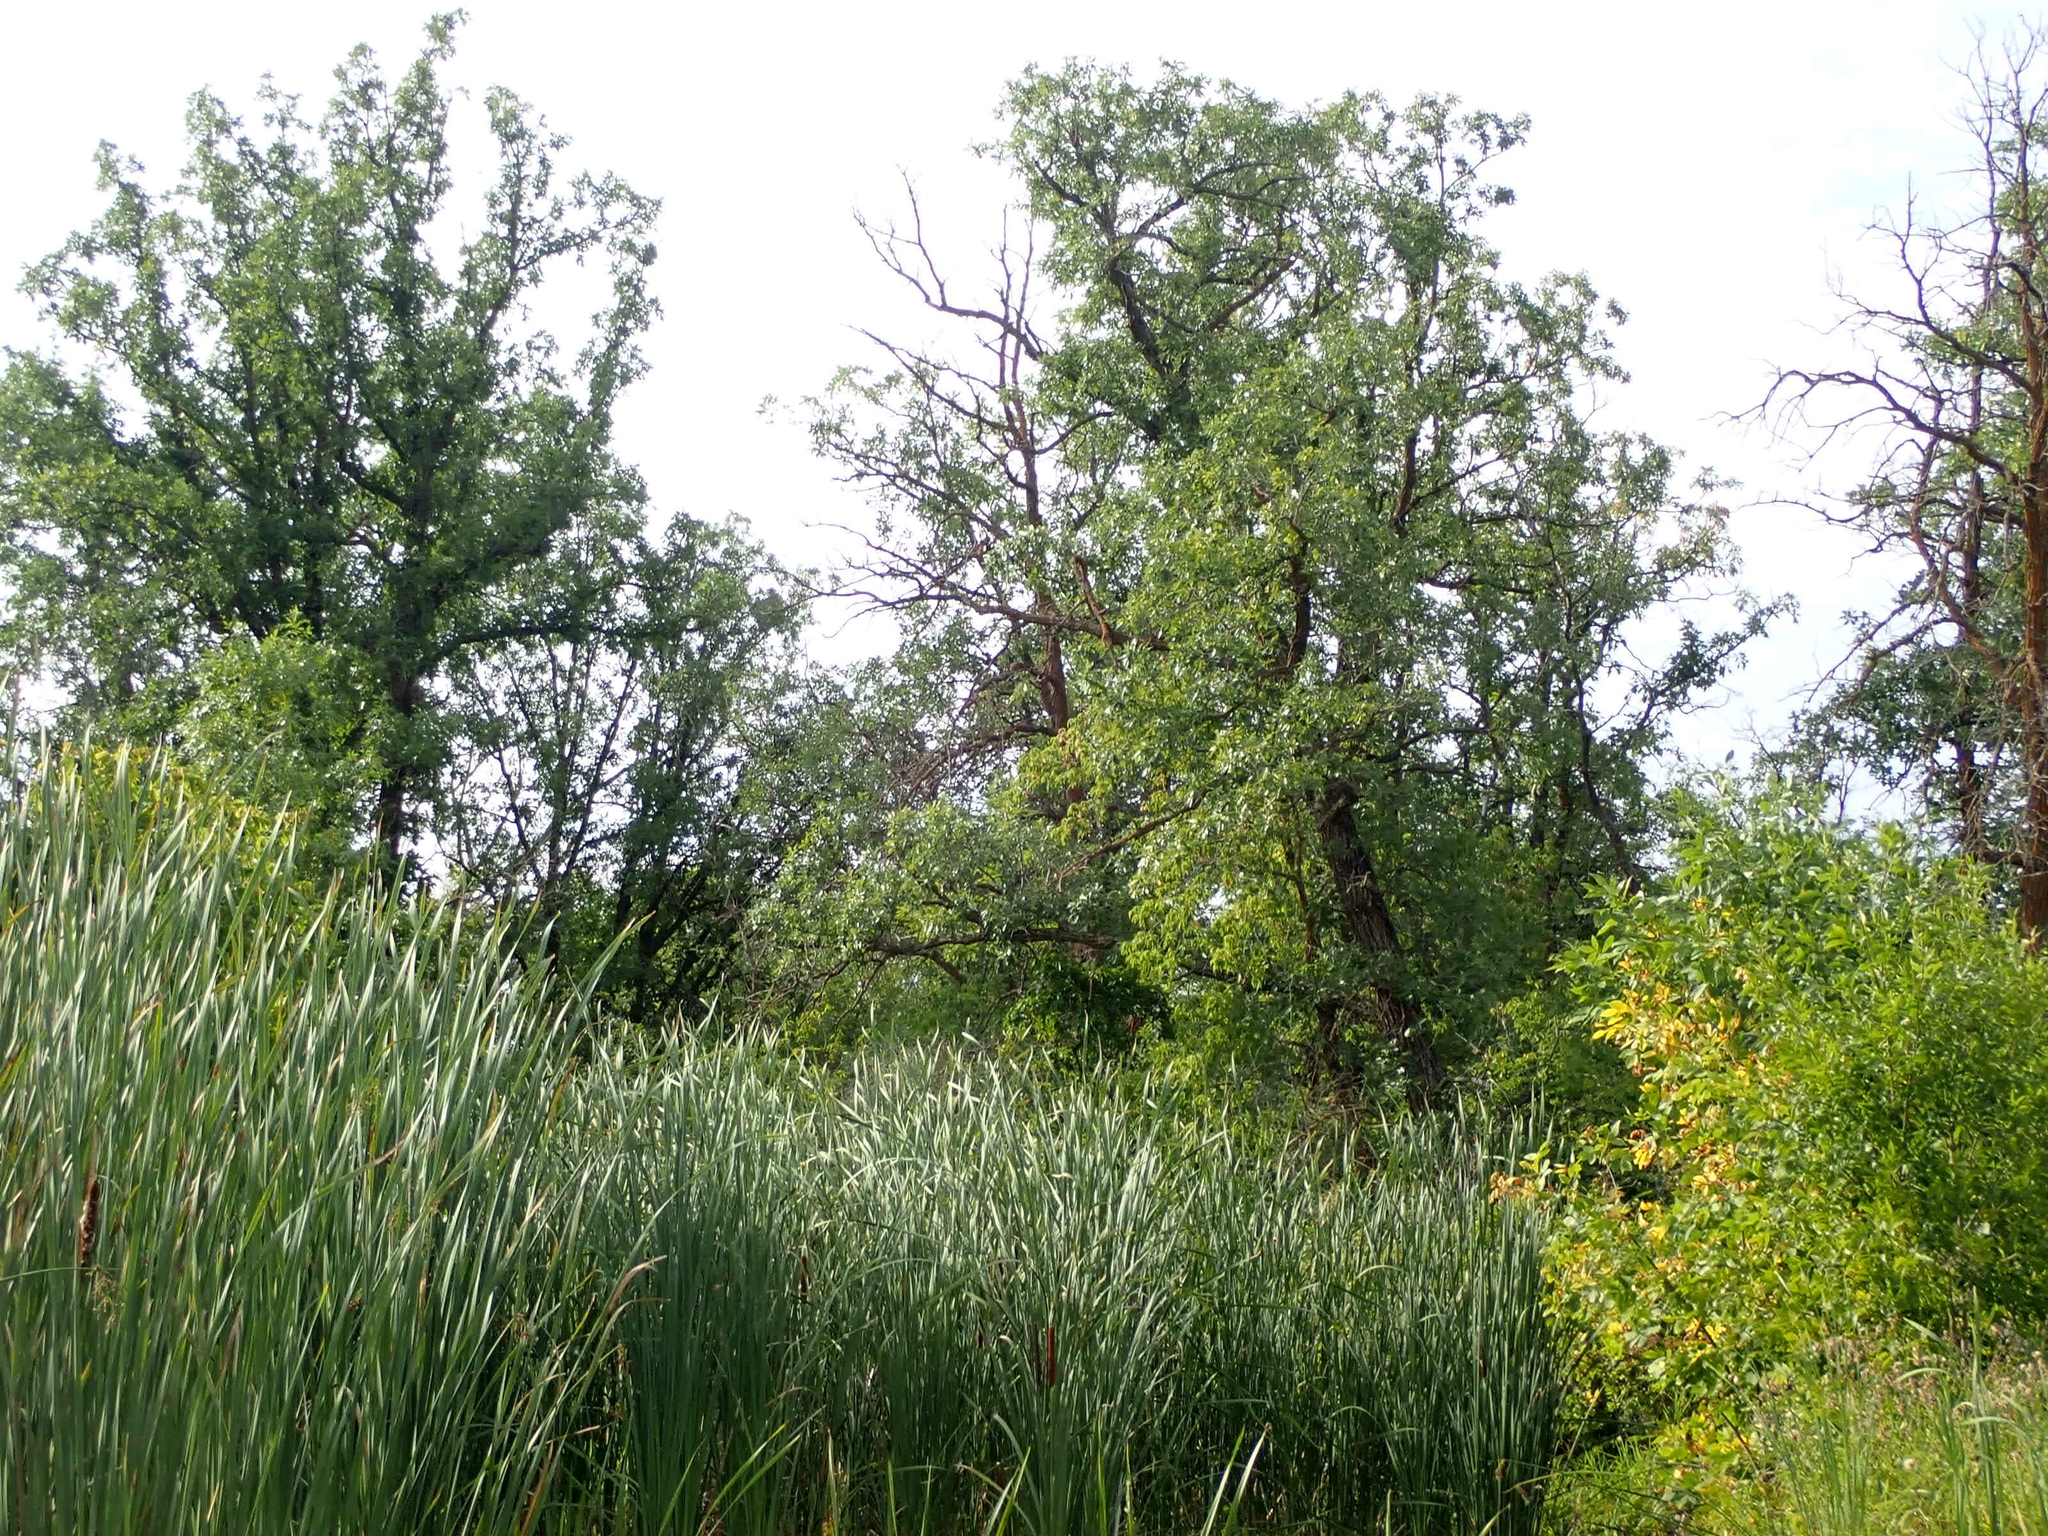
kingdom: Plantae
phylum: Tracheophyta
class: Magnoliopsida
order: Fagales
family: Fagaceae
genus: Quercus
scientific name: Quercus macrocarpa
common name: Bur oak
